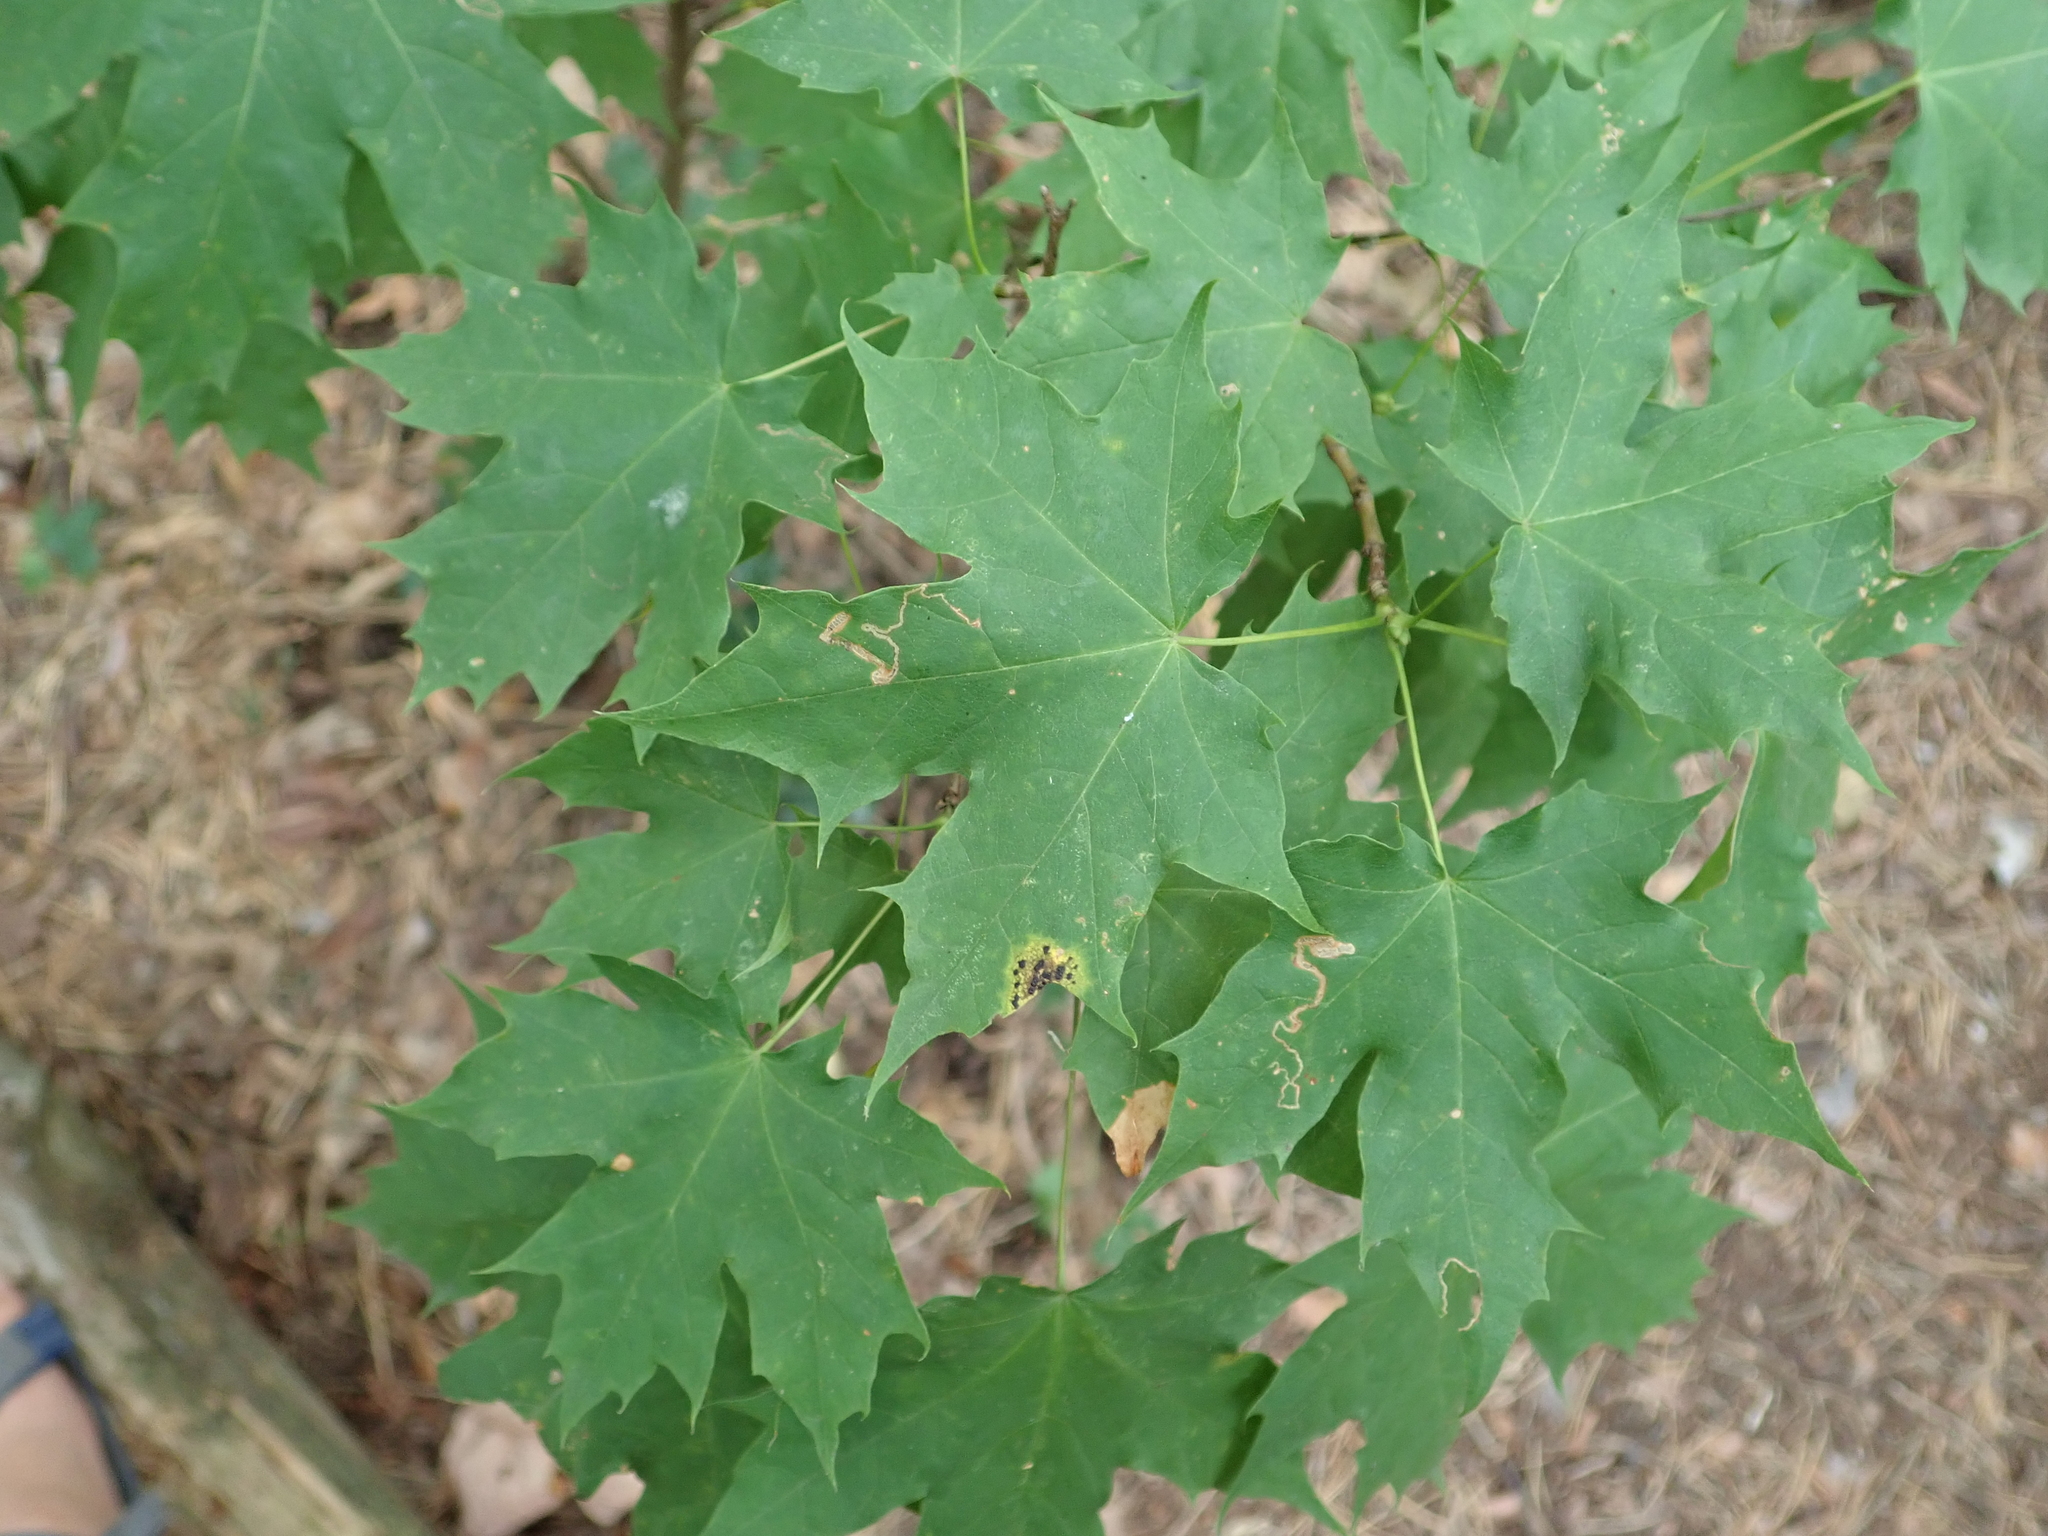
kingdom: Plantae
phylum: Tracheophyta
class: Magnoliopsida
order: Sapindales
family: Sapindaceae
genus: Acer
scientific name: Acer platanoides
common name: Norway maple
